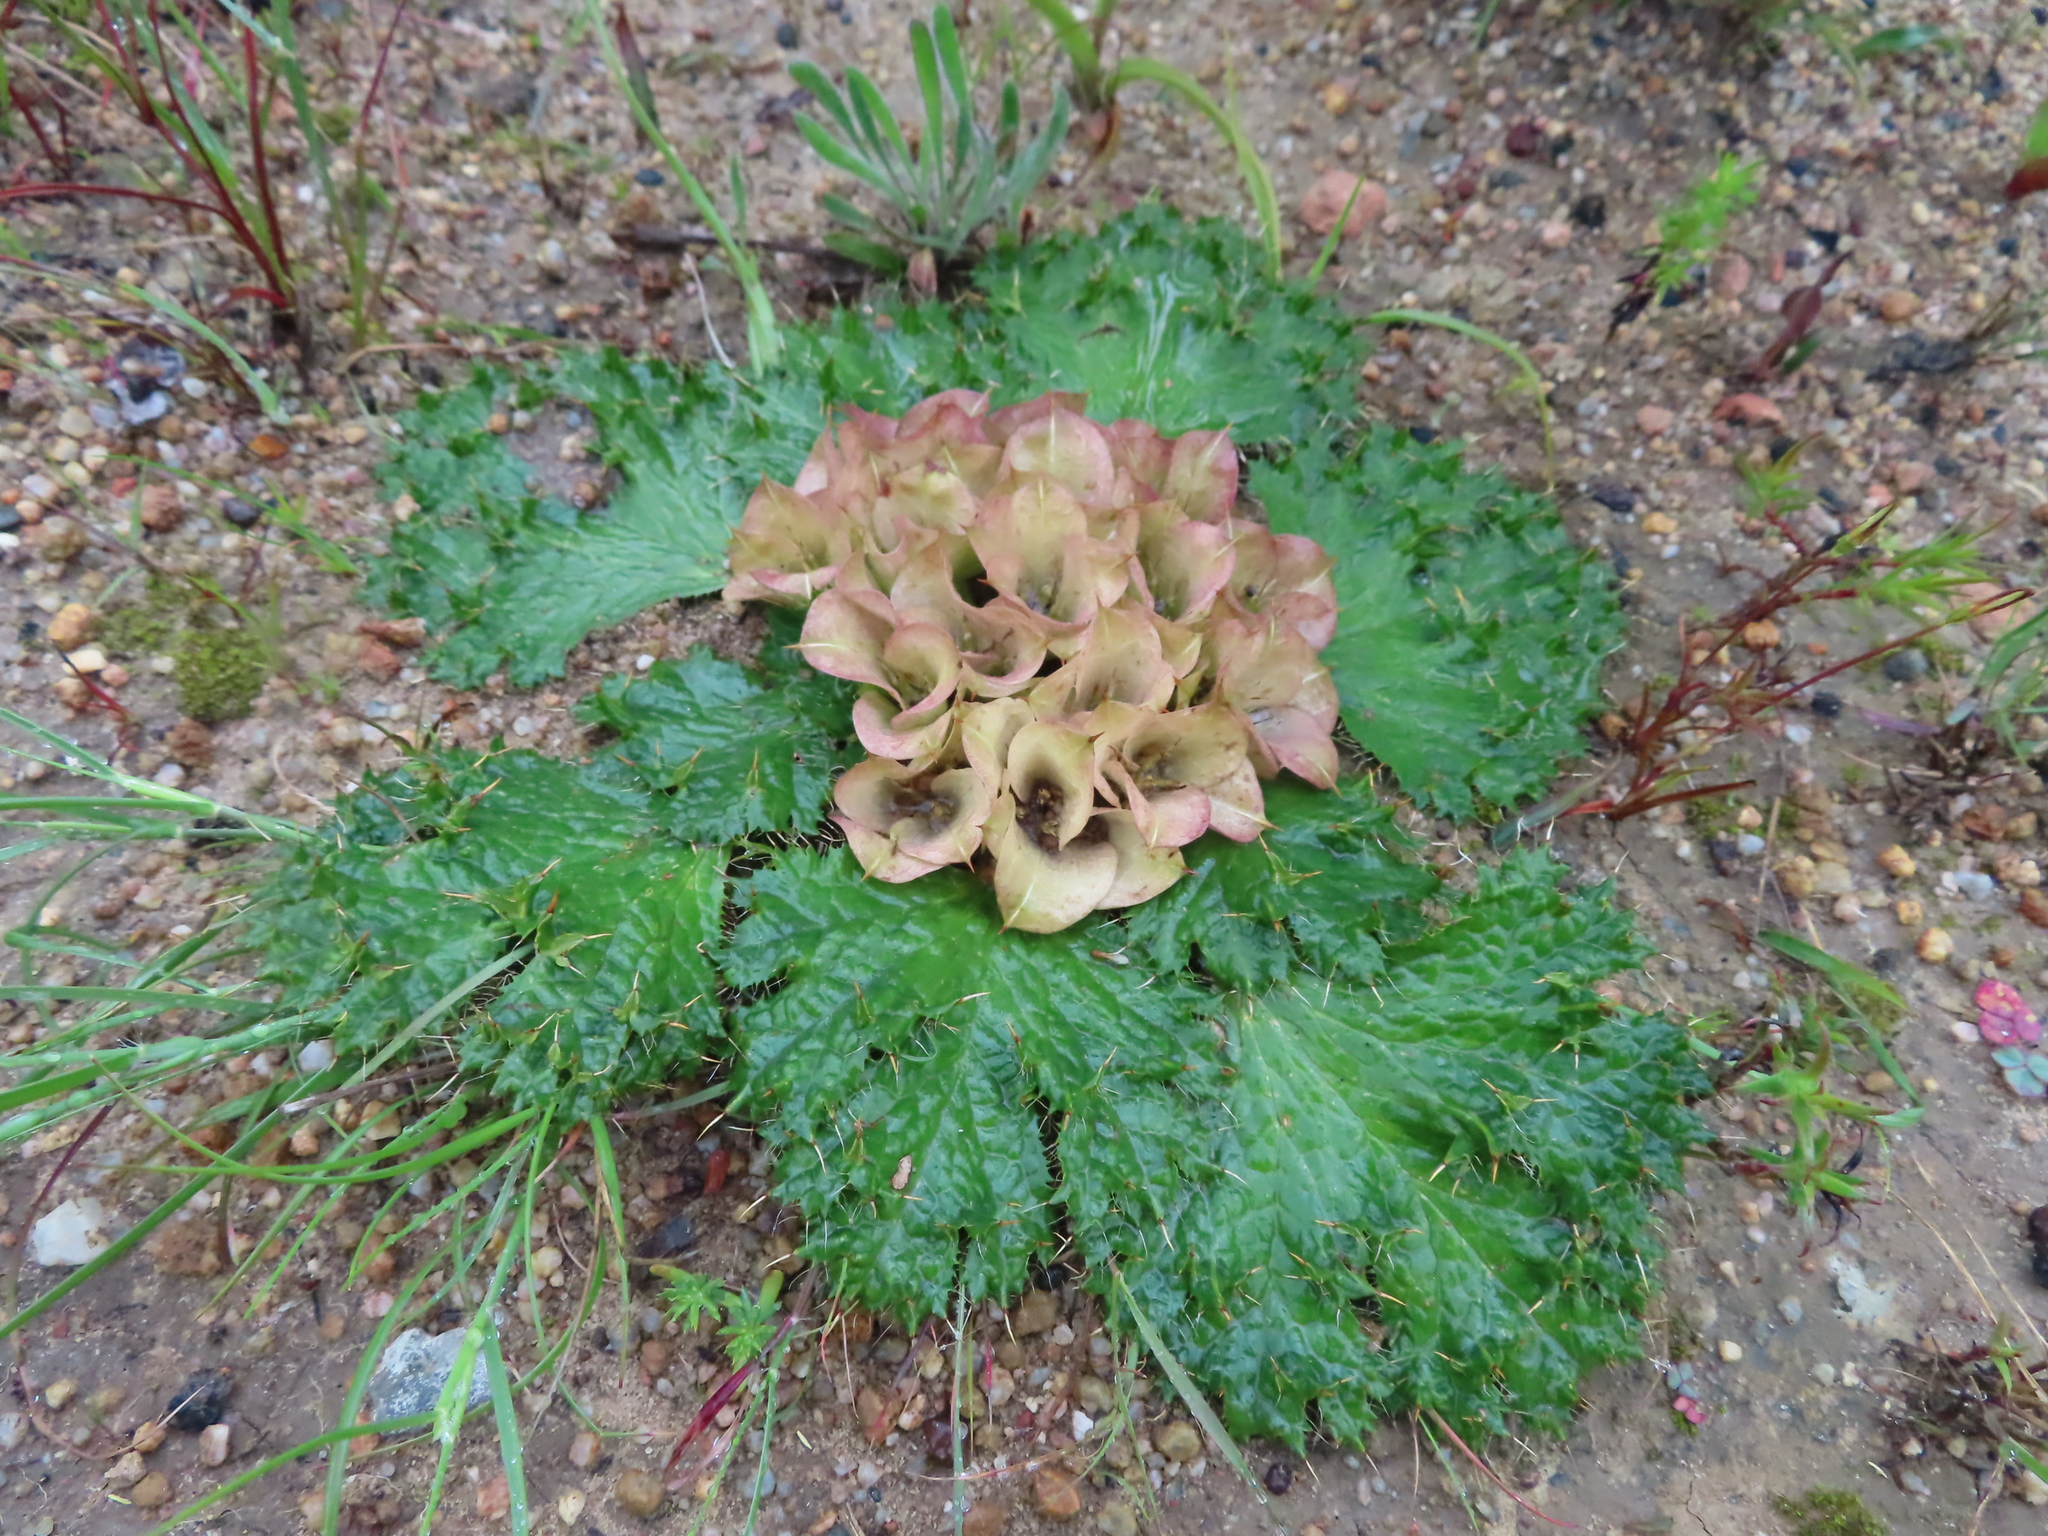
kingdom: Plantae
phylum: Tracheophyta
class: Magnoliopsida
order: Apiales
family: Apiaceae
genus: Arctopus
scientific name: Arctopus monacanthus
